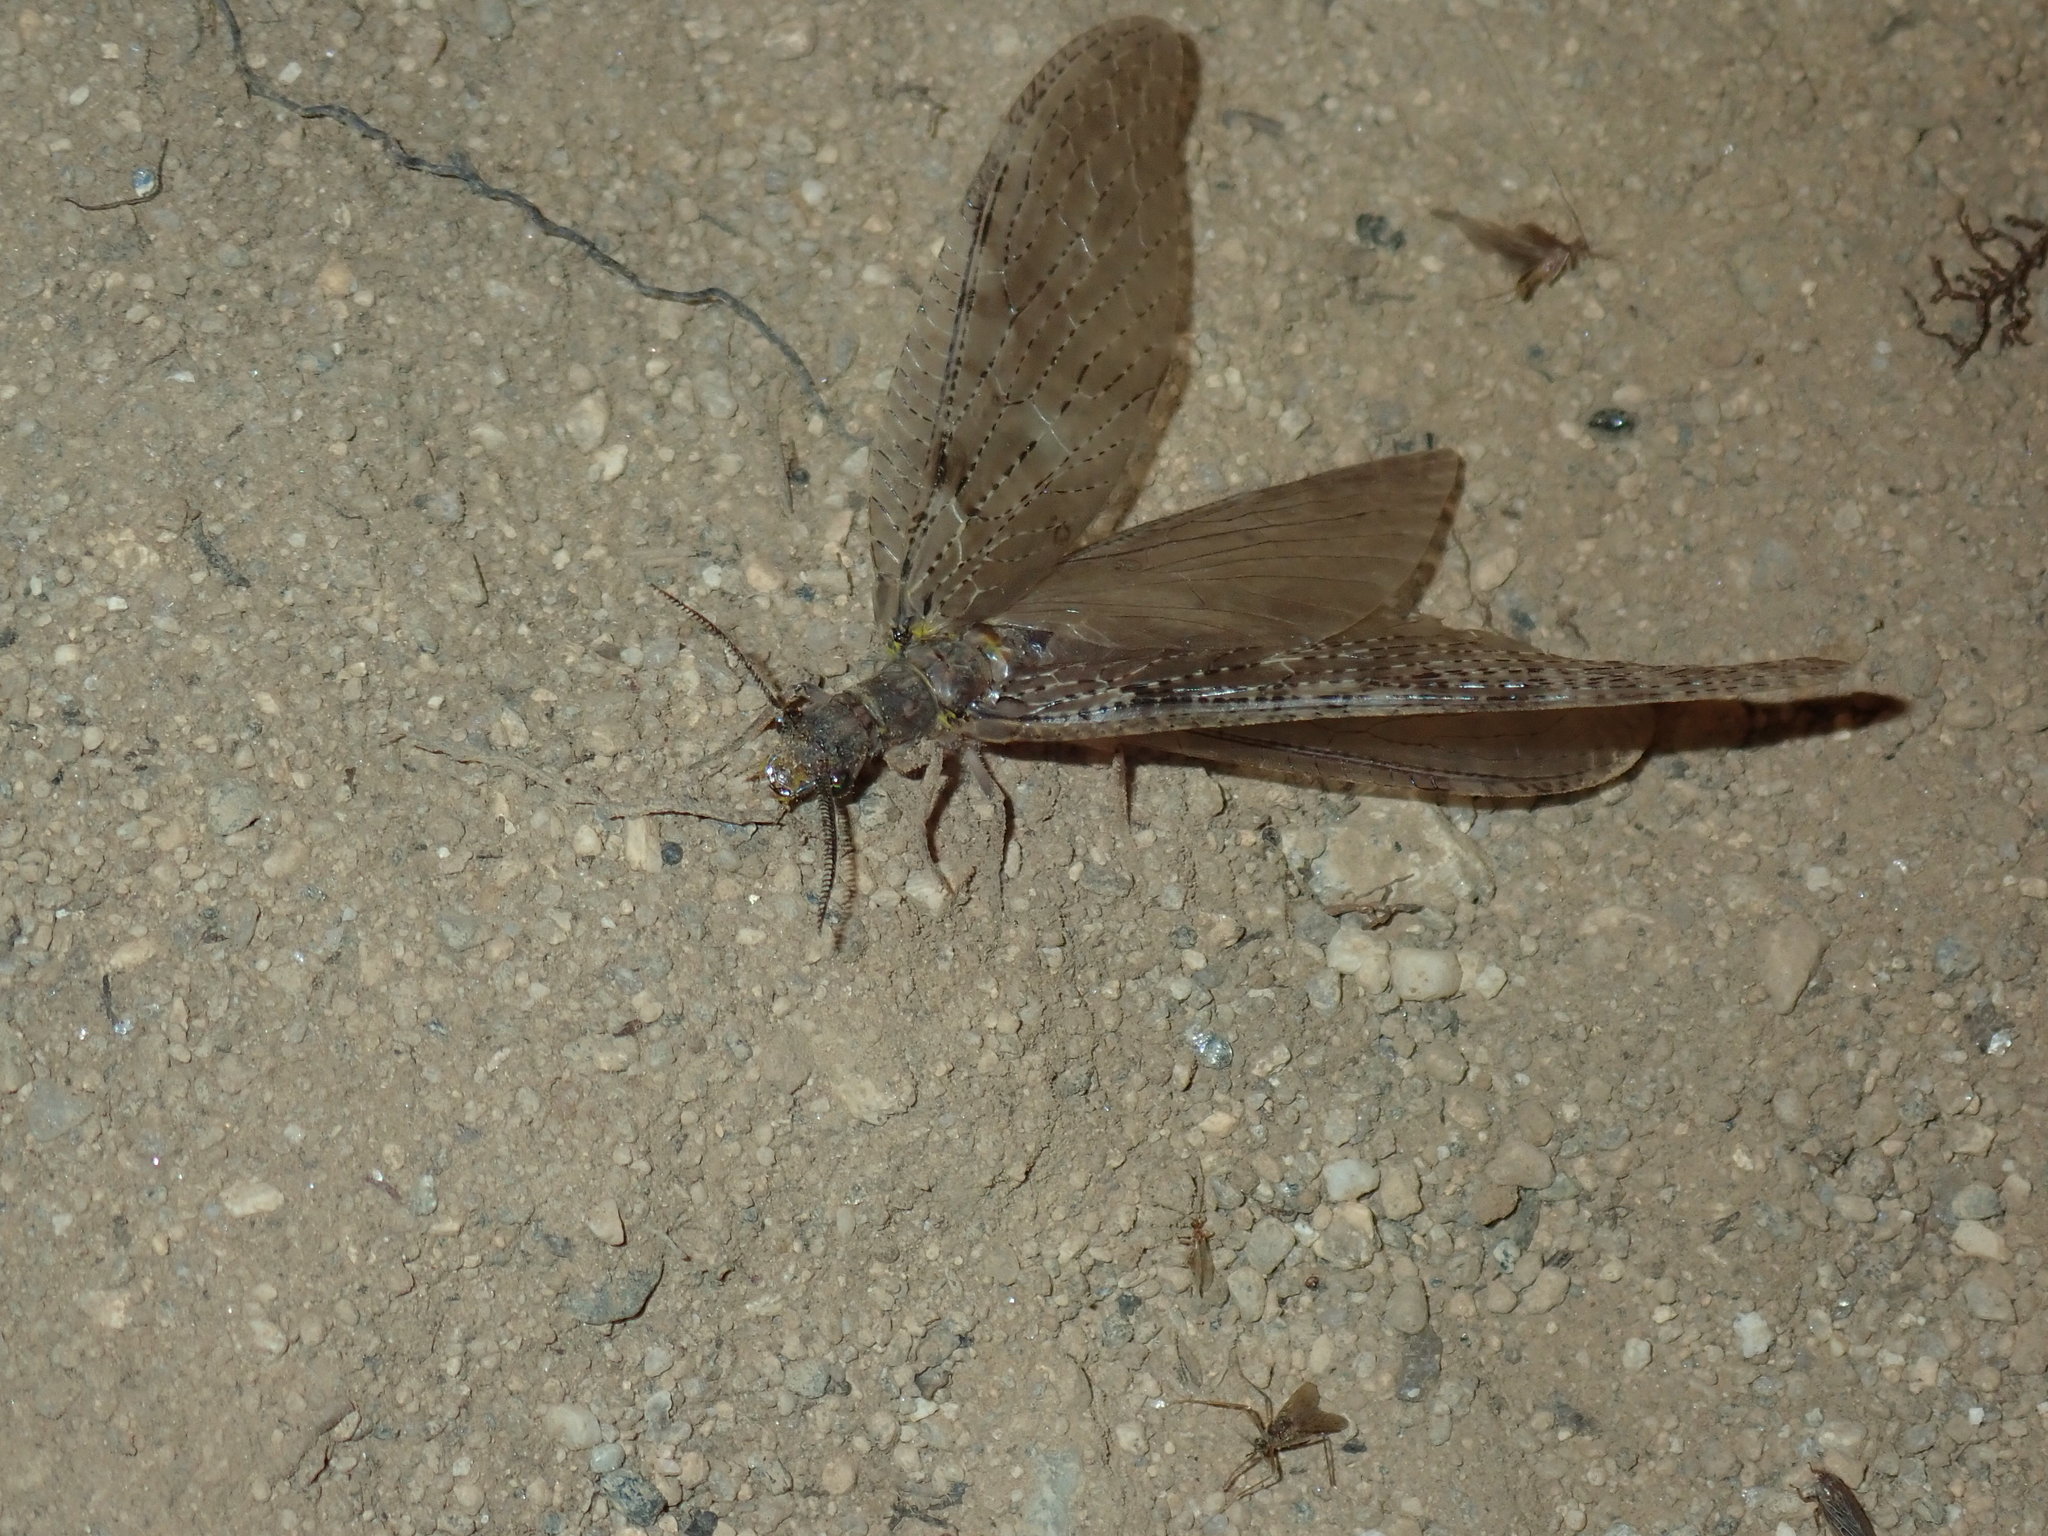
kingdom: Animalia
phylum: Arthropoda
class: Insecta
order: Megaloptera
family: Corydalidae
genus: Chauliodes
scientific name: Chauliodes pectinicornis
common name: Summer fishfly
